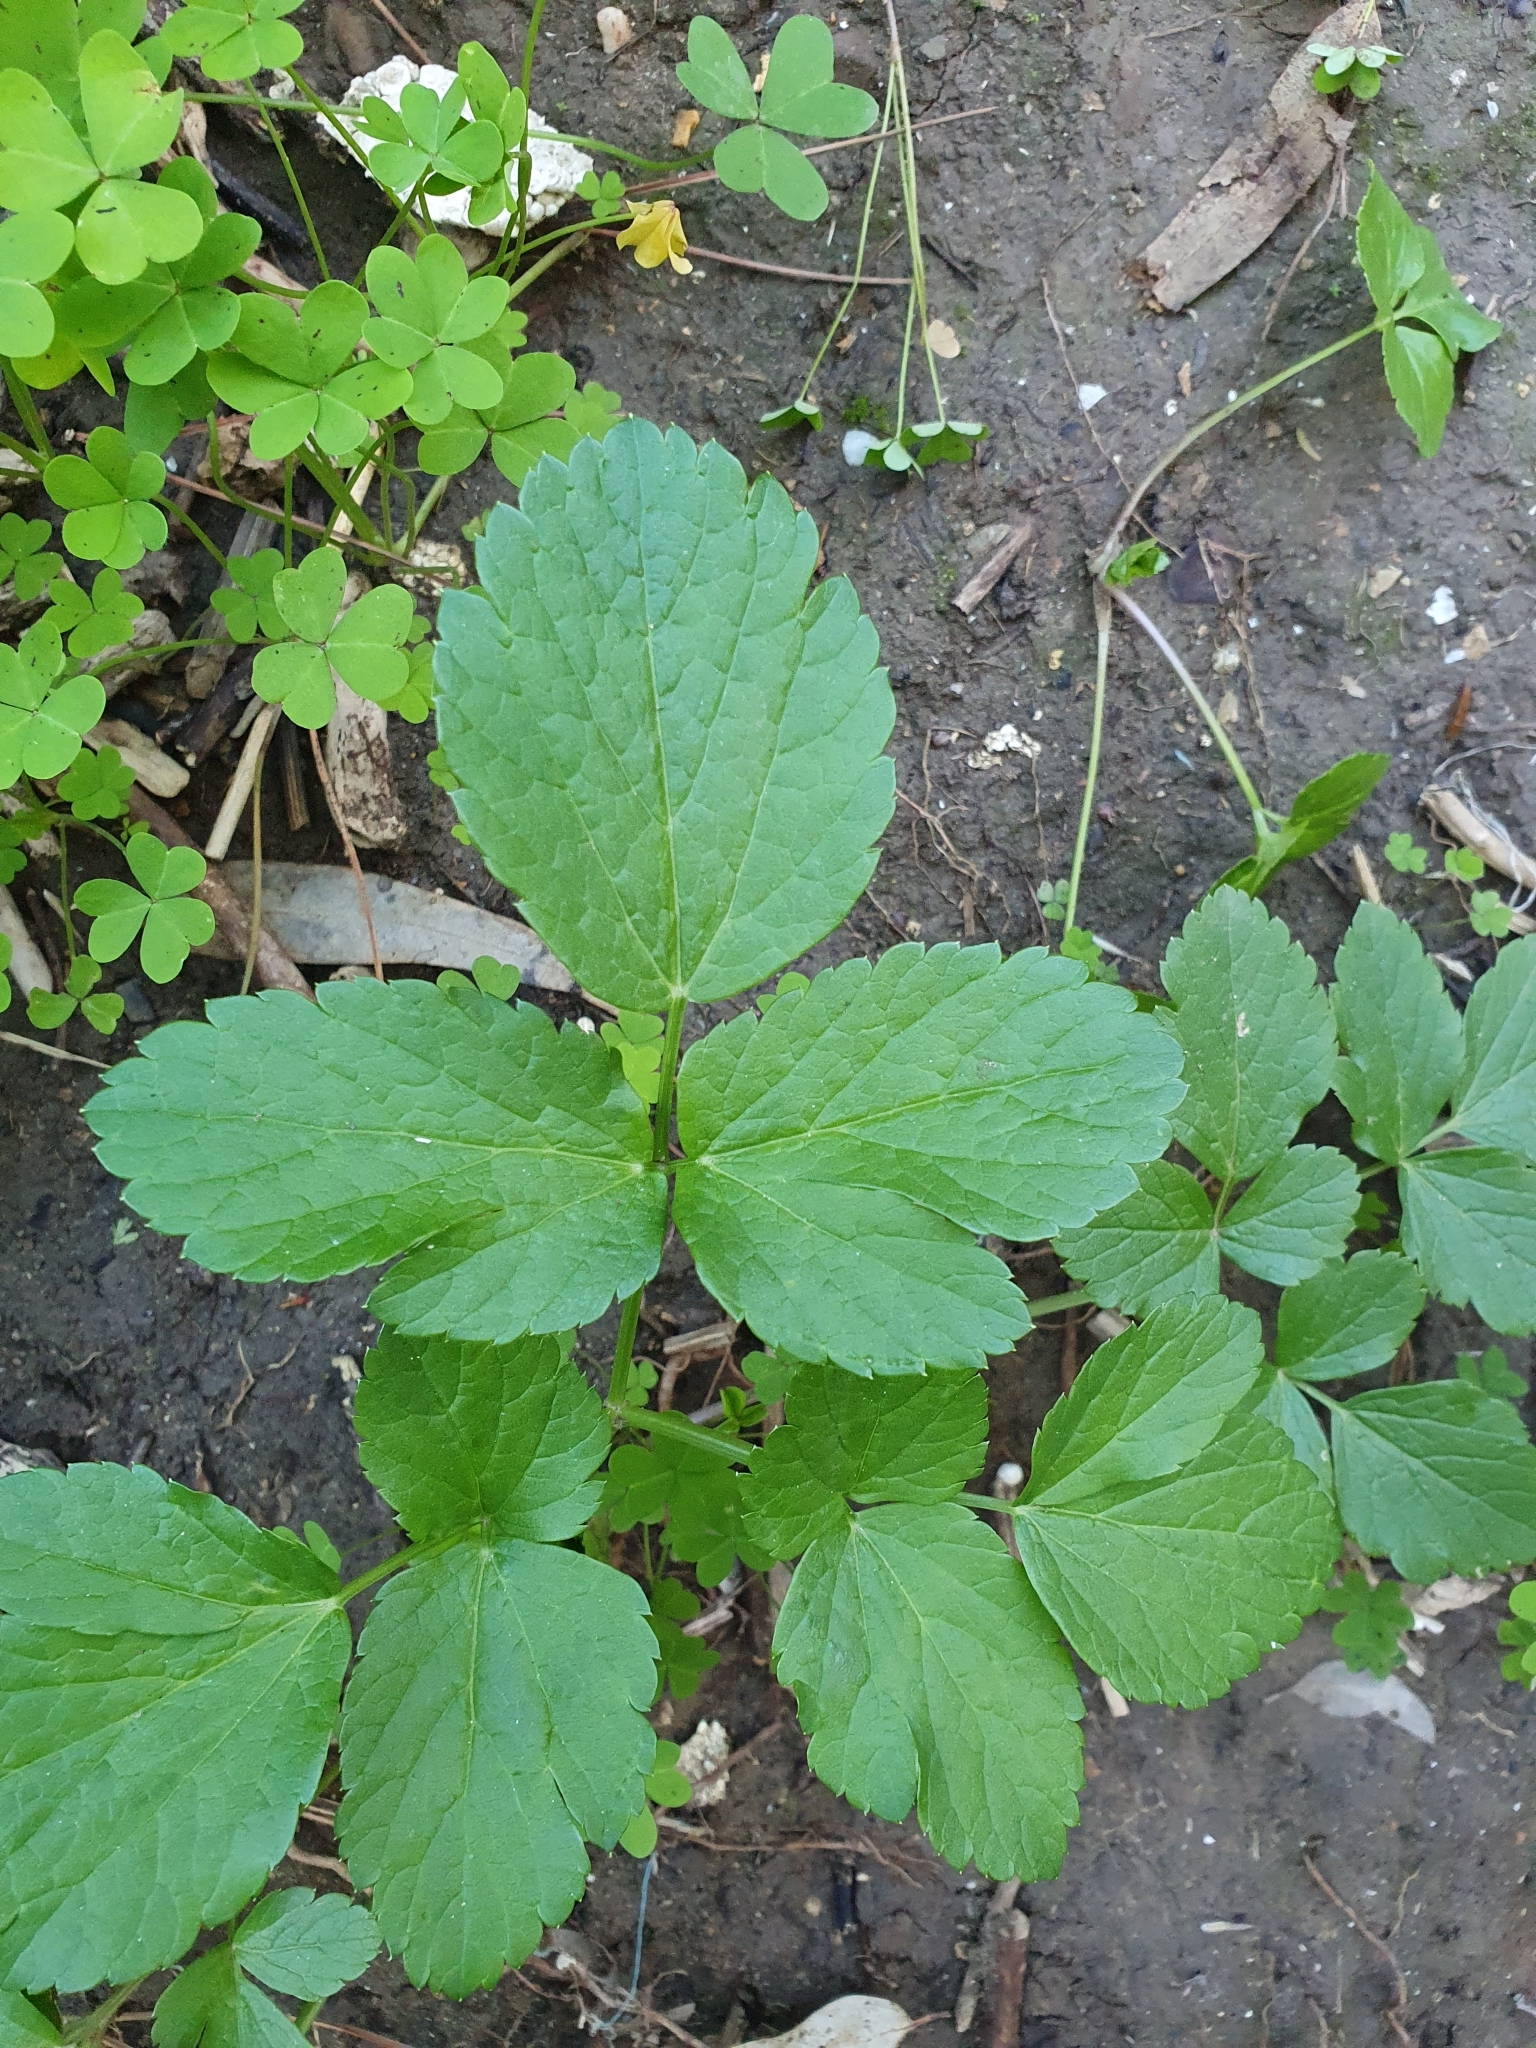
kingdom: Plantae
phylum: Tracheophyta
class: Magnoliopsida
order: Apiales
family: Apiaceae
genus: Smyrnium
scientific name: Smyrnium olusatrum
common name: Alexanders
